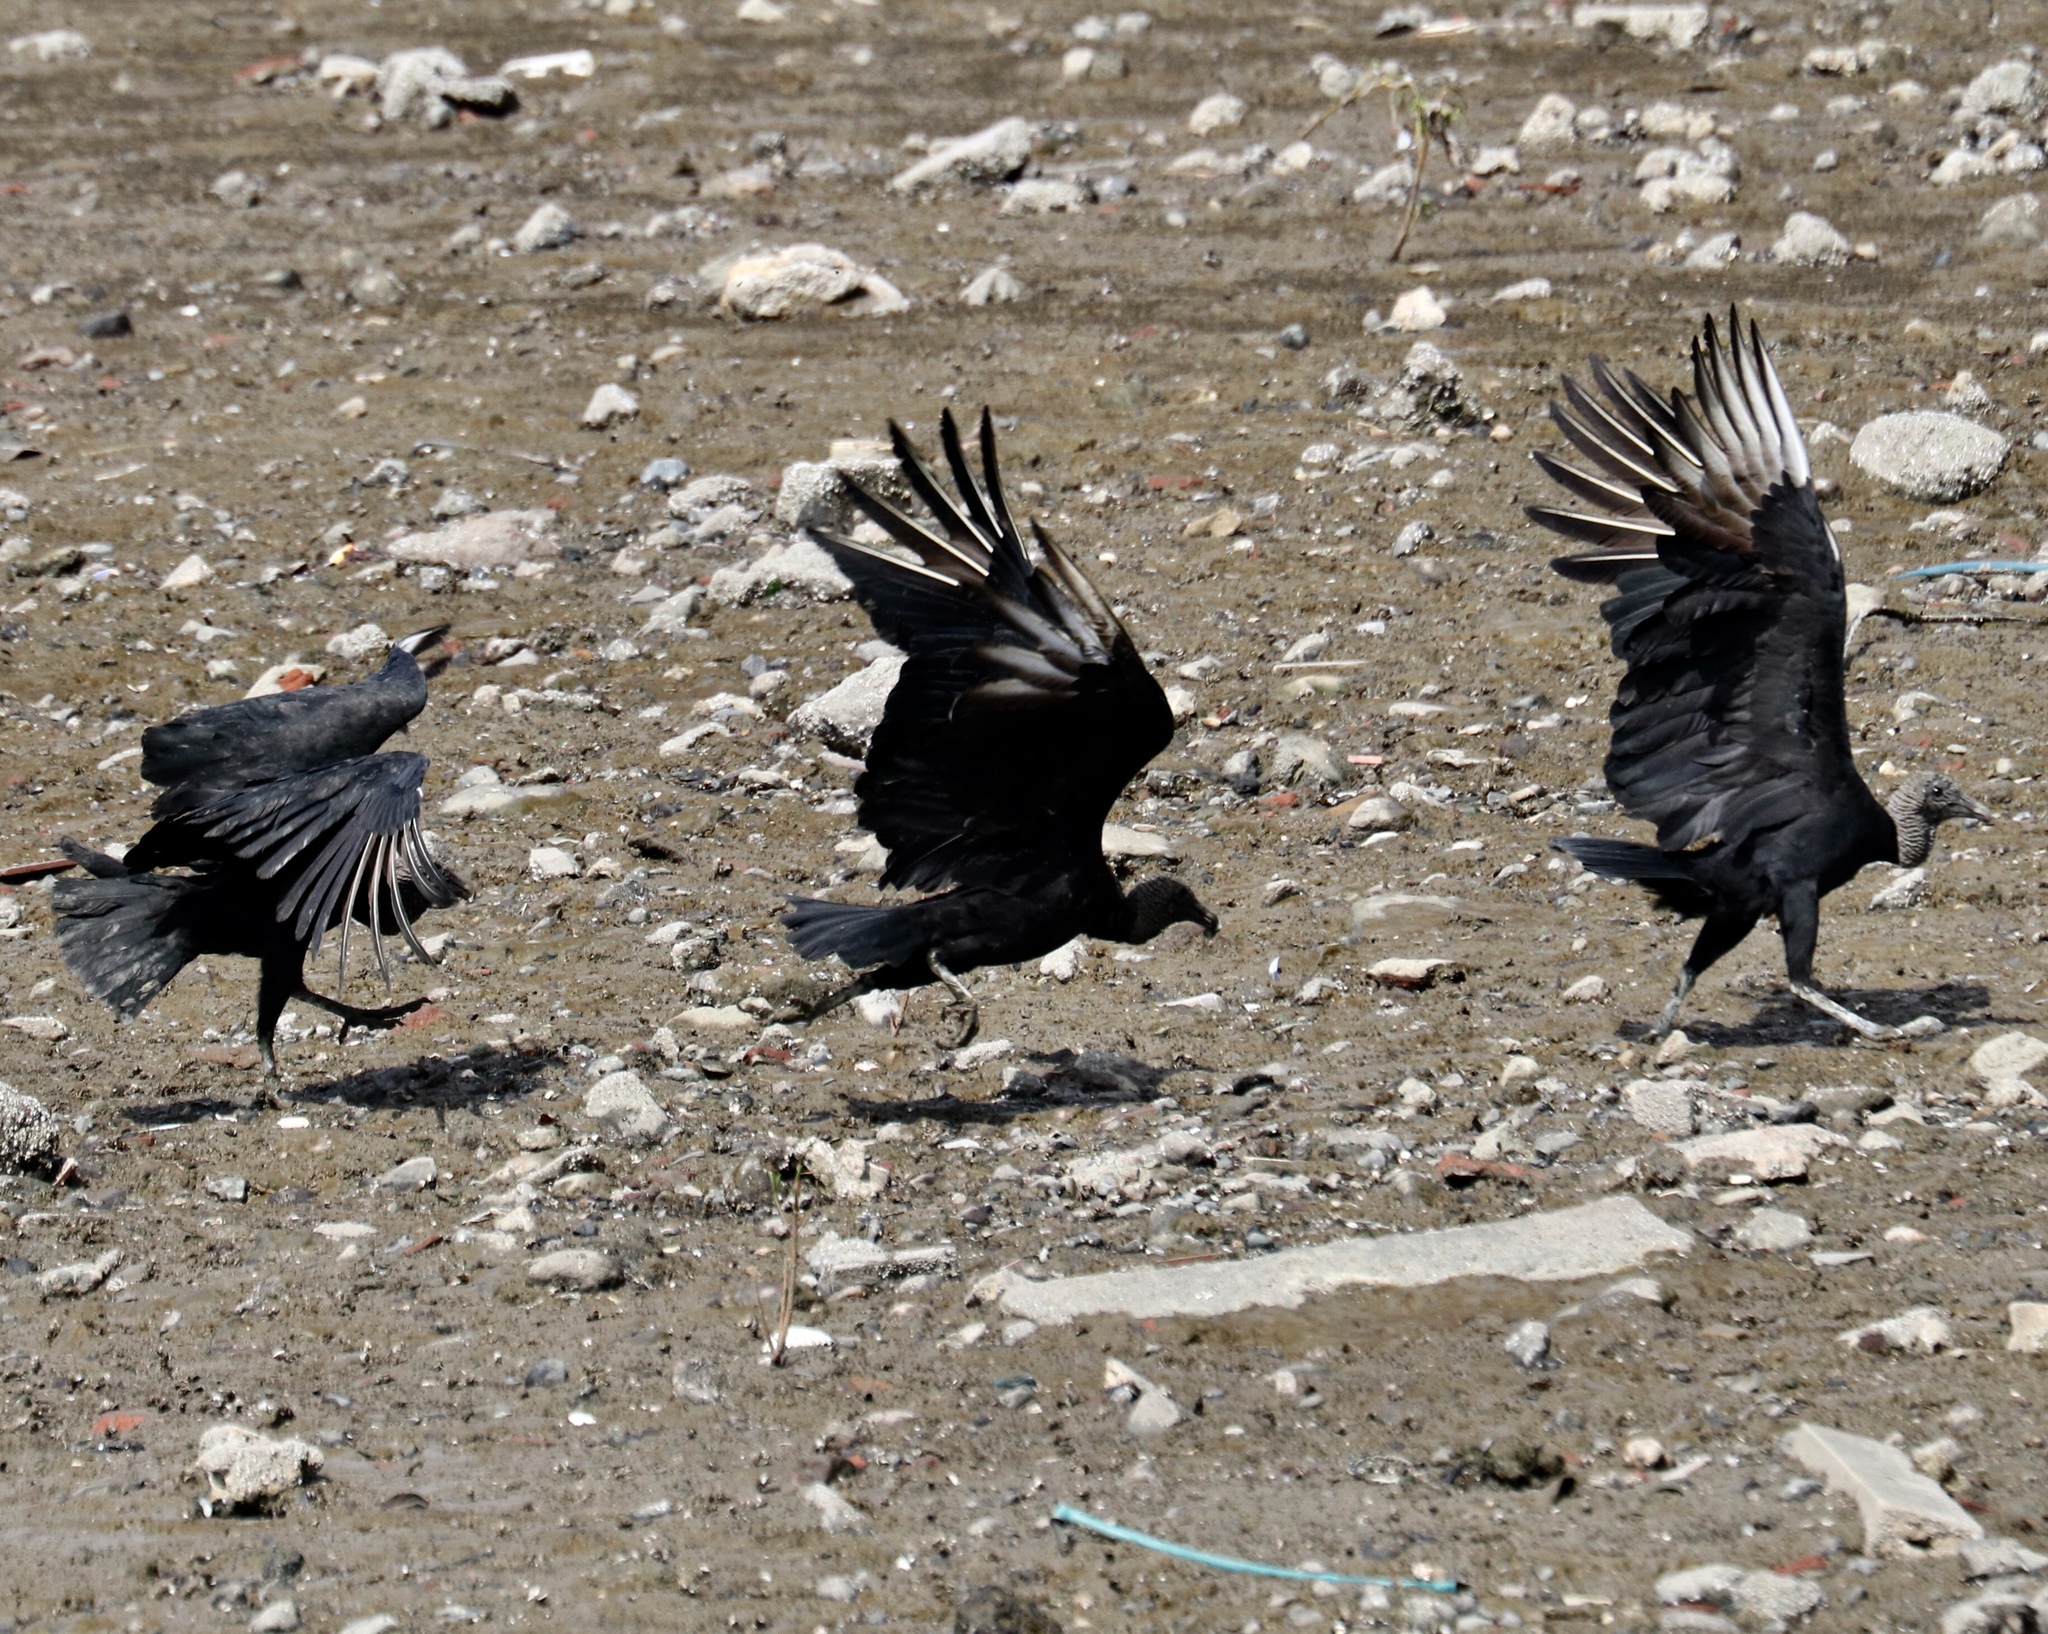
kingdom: Animalia
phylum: Chordata
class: Aves
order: Accipitriformes
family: Cathartidae
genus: Coragyps
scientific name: Coragyps atratus
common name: Black vulture
